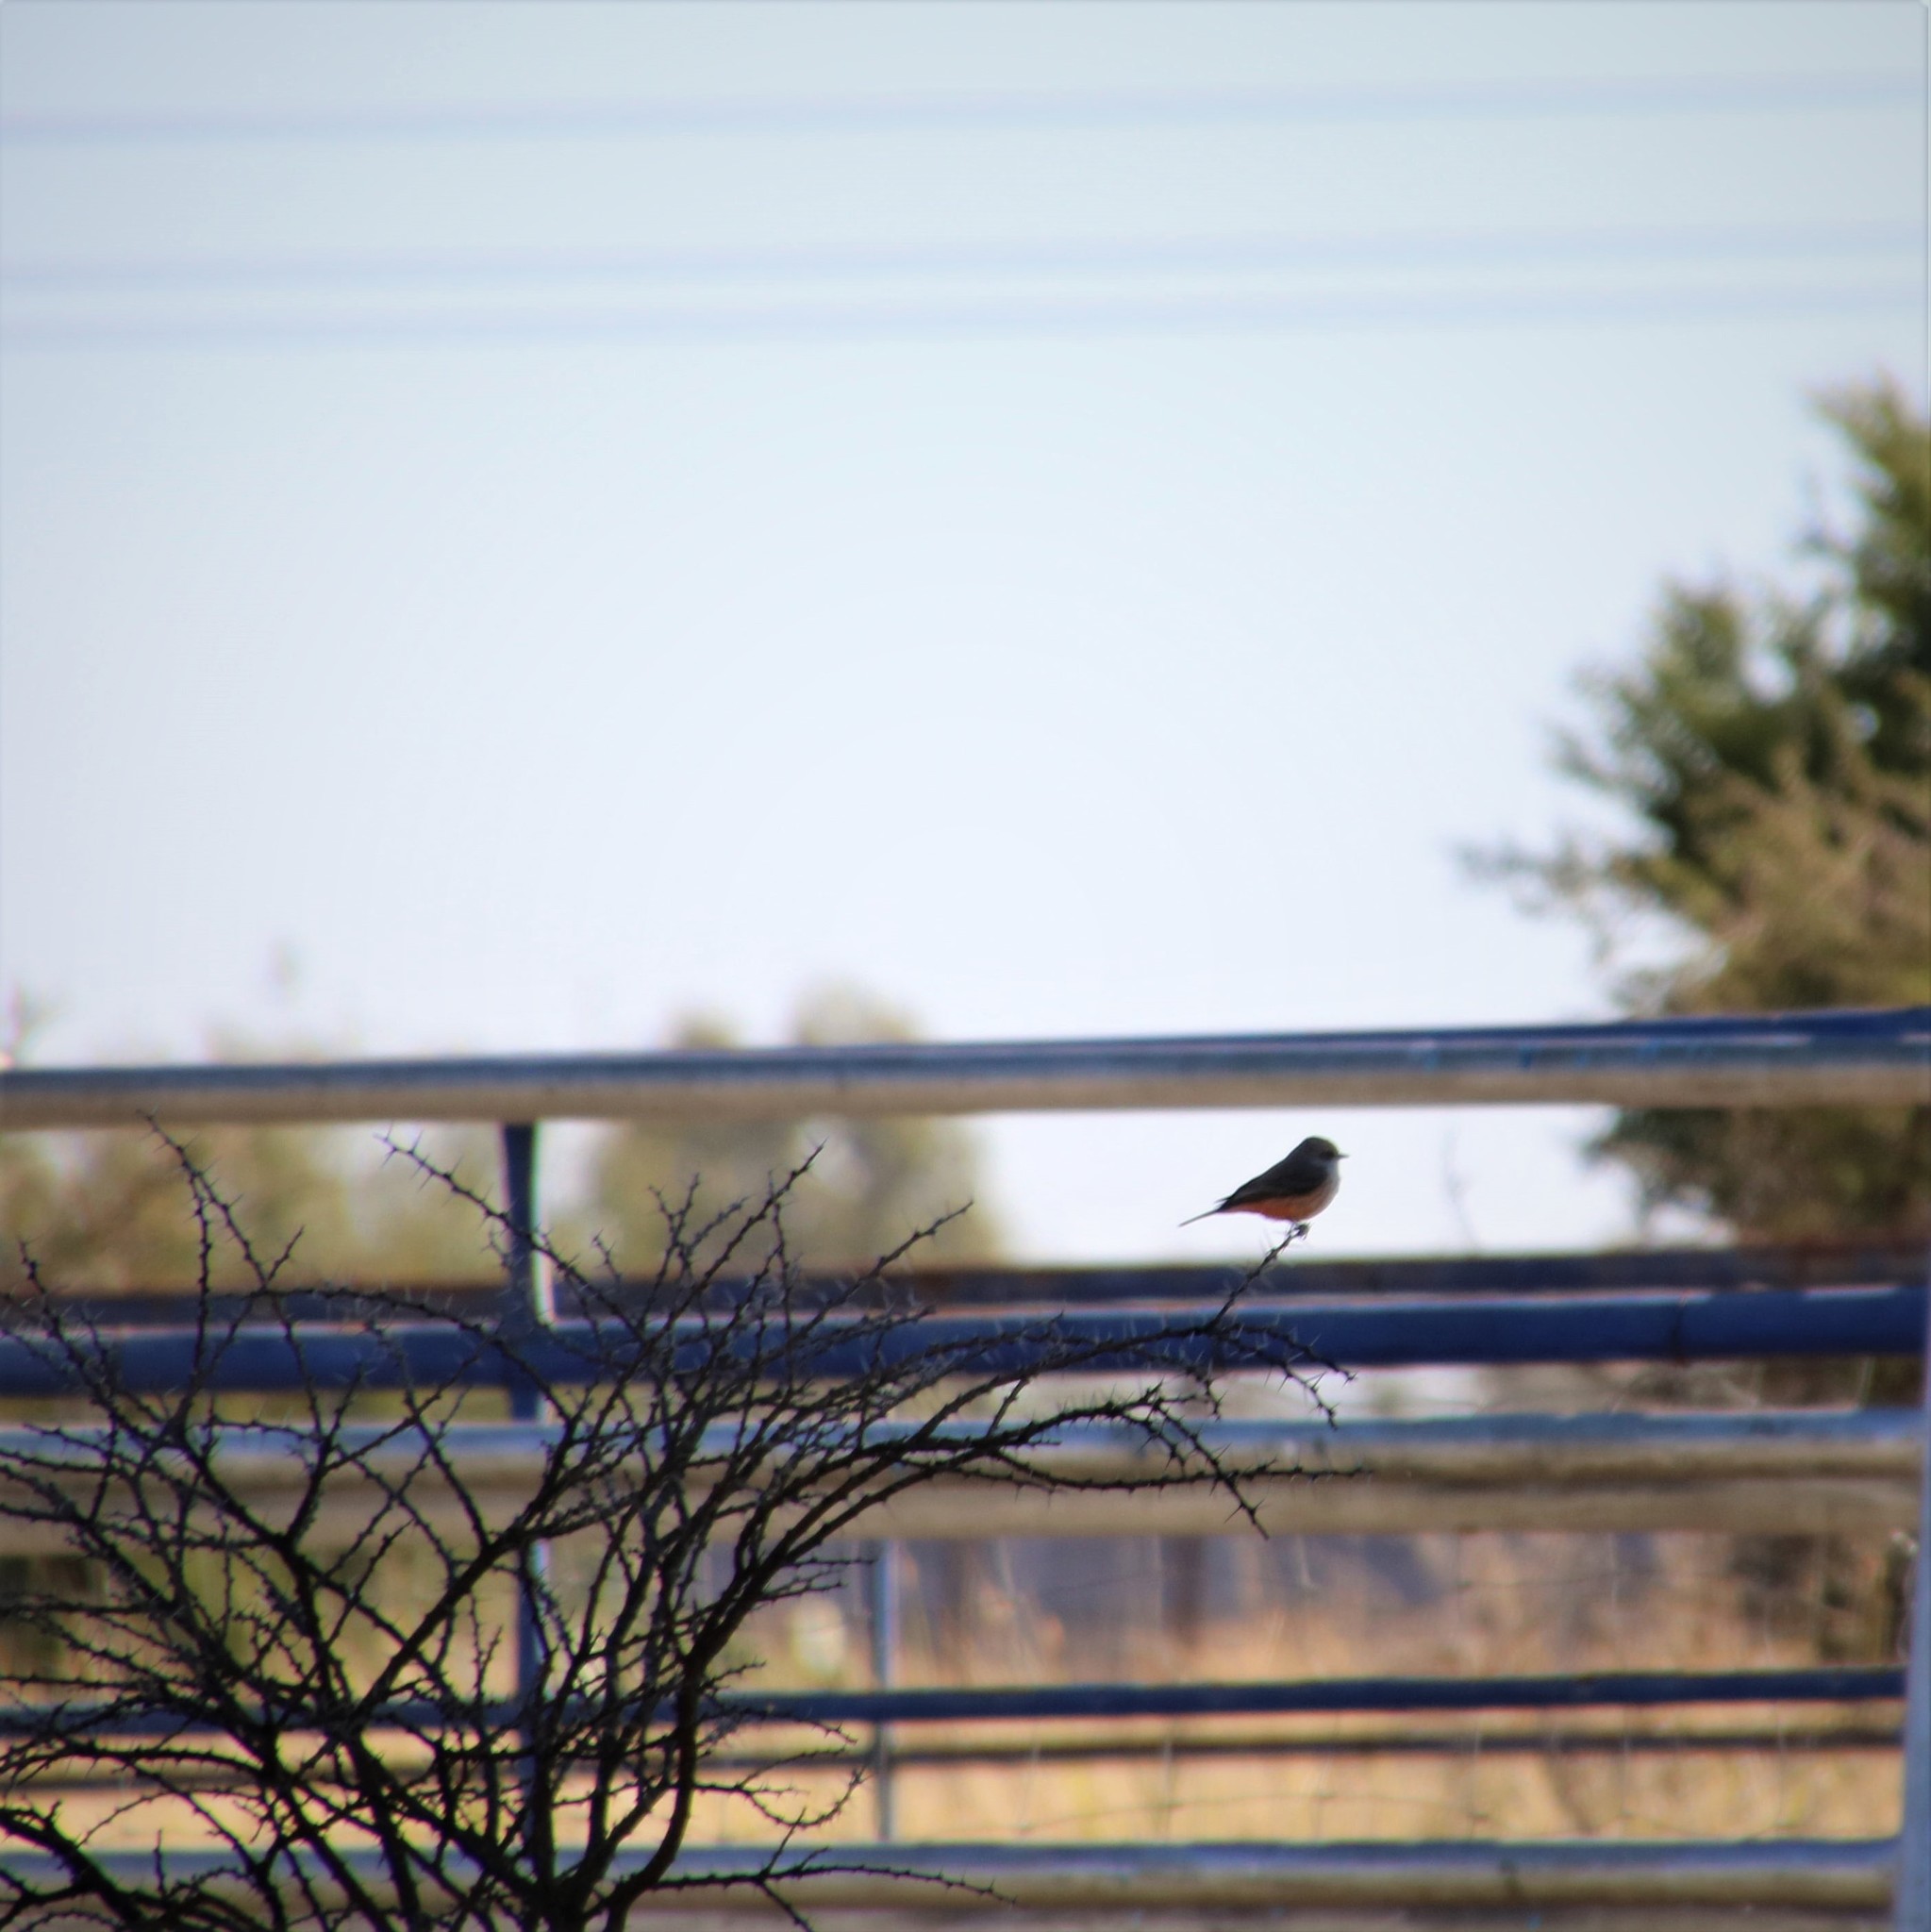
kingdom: Animalia
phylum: Chordata
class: Aves
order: Passeriformes
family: Tyrannidae
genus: Pyrocephalus
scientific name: Pyrocephalus rubinus
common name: Vermilion flycatcher
